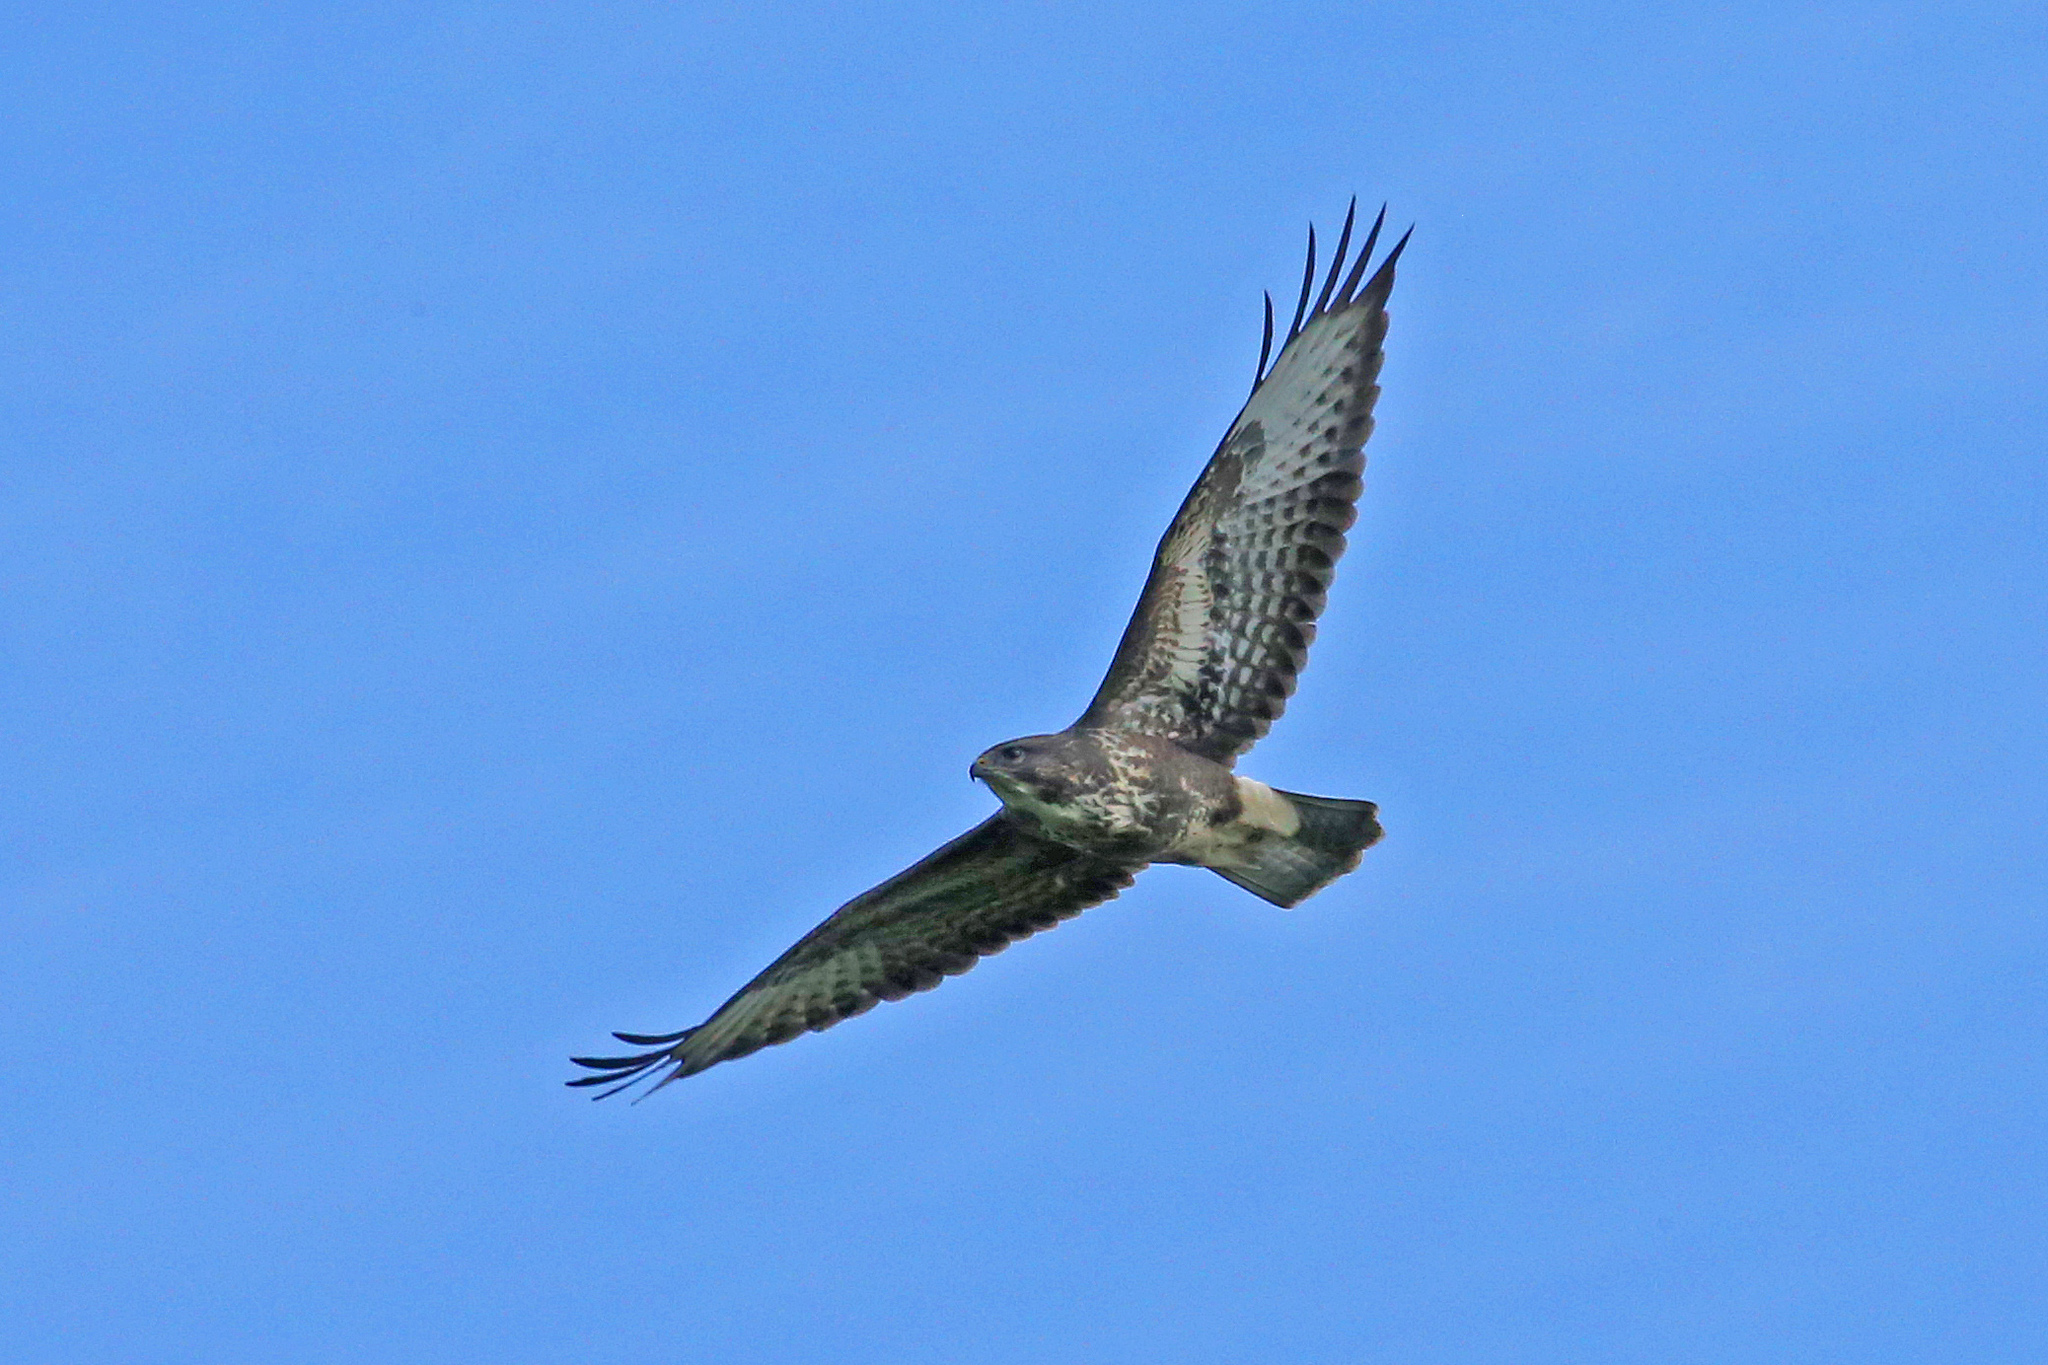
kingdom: Animalia
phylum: Chordata
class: Aves
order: Accipitriformes
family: Accipitridae
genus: Buteo
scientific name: Buteo buteo
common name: Common buzzard
